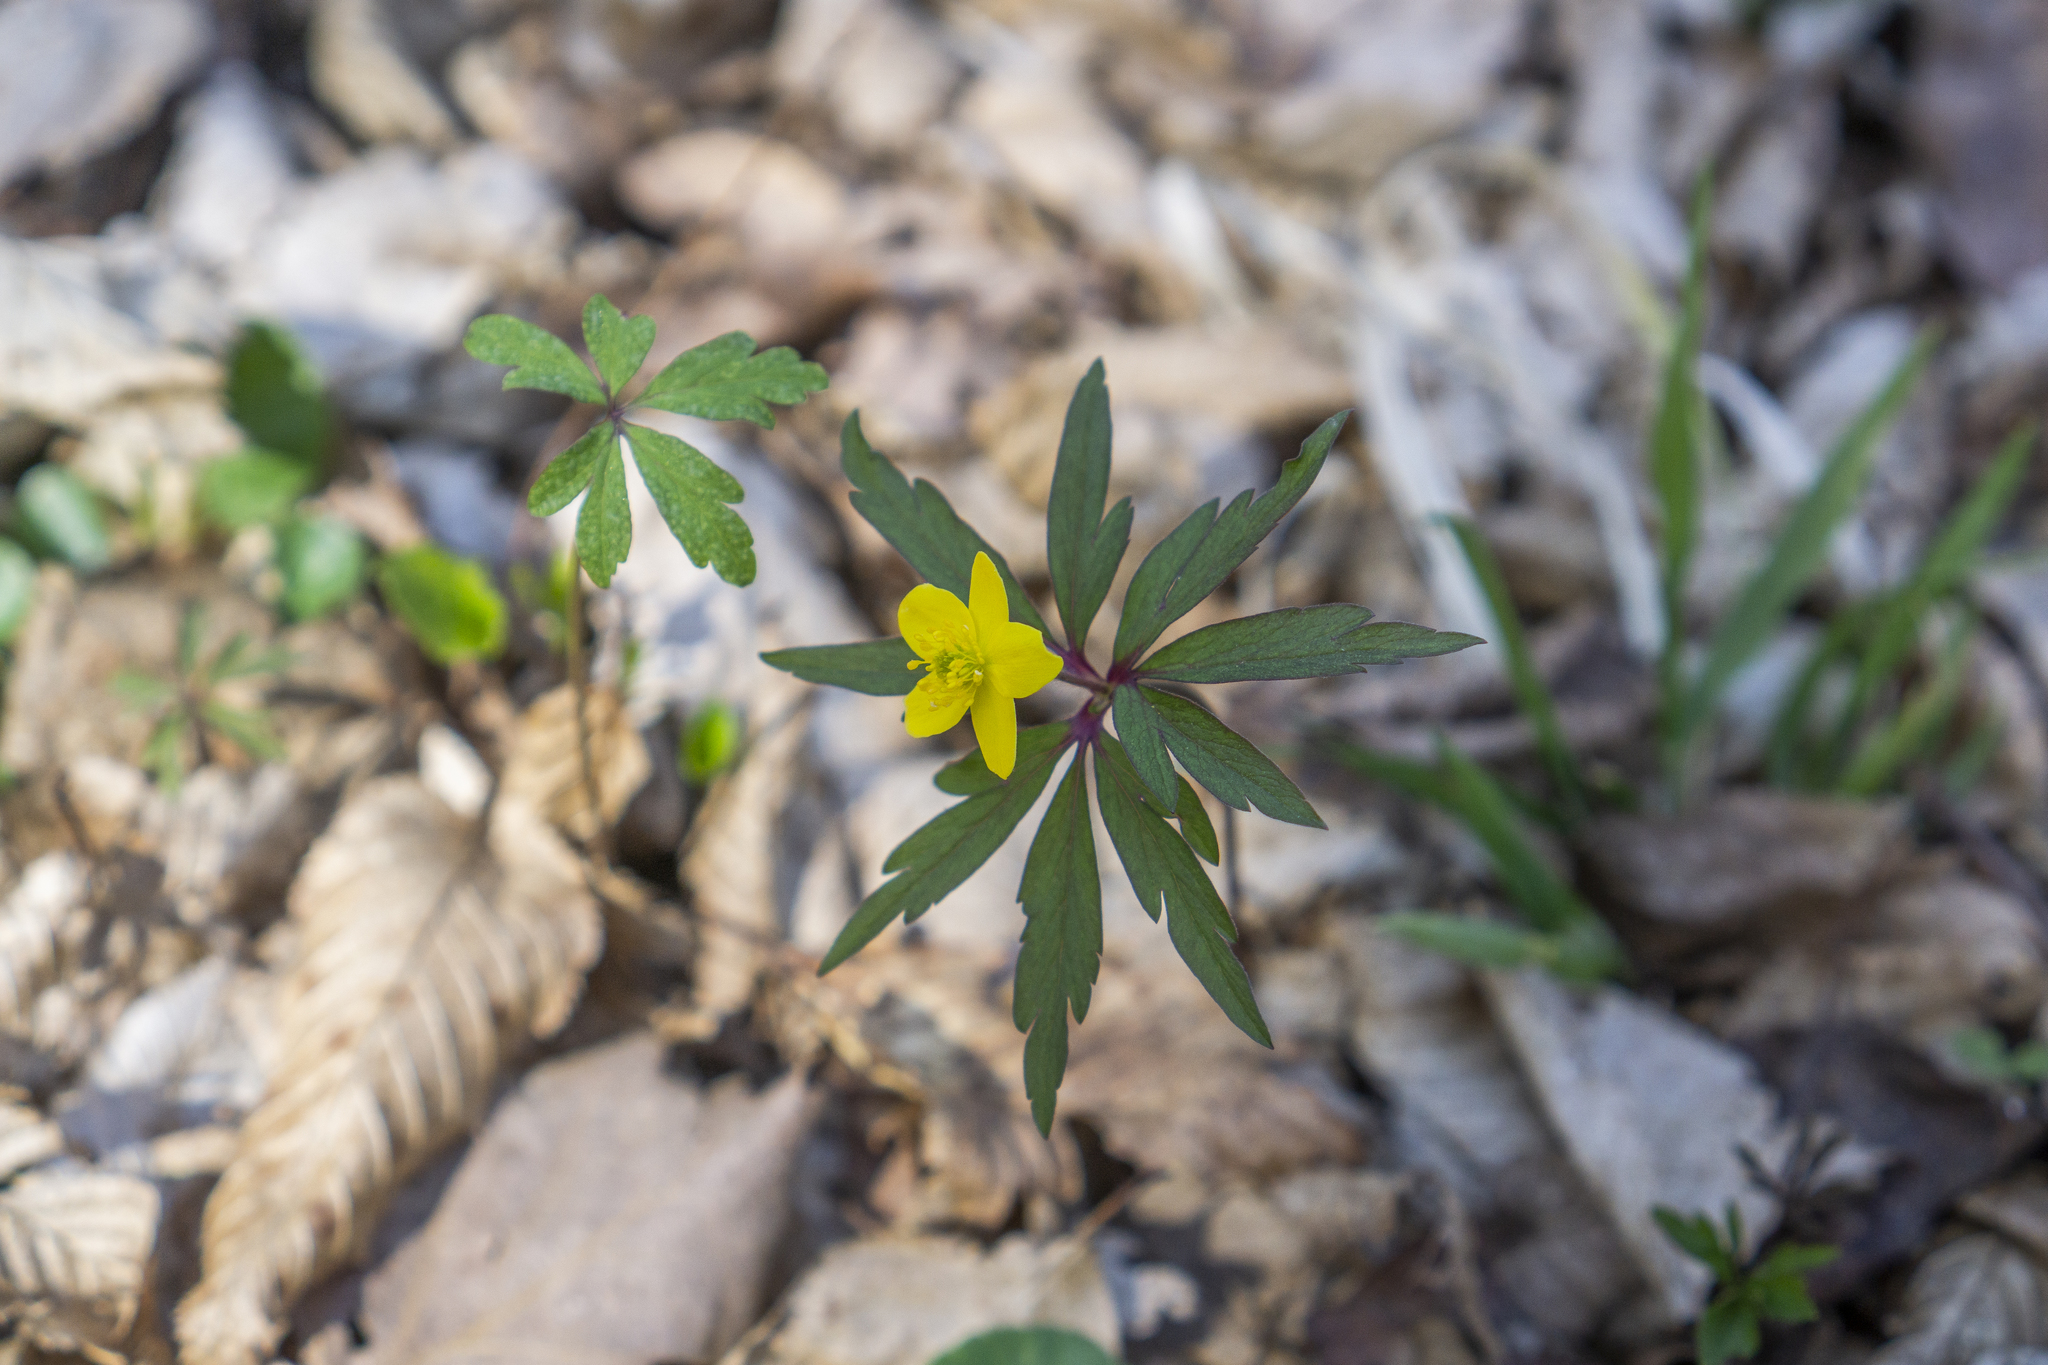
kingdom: Plantae
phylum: Tracheophyta
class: Magnoliopsida
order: Ranunculales
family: Ranunculaceae
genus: Anemone
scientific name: Anemone ranunculoides
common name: Yellow anemone
